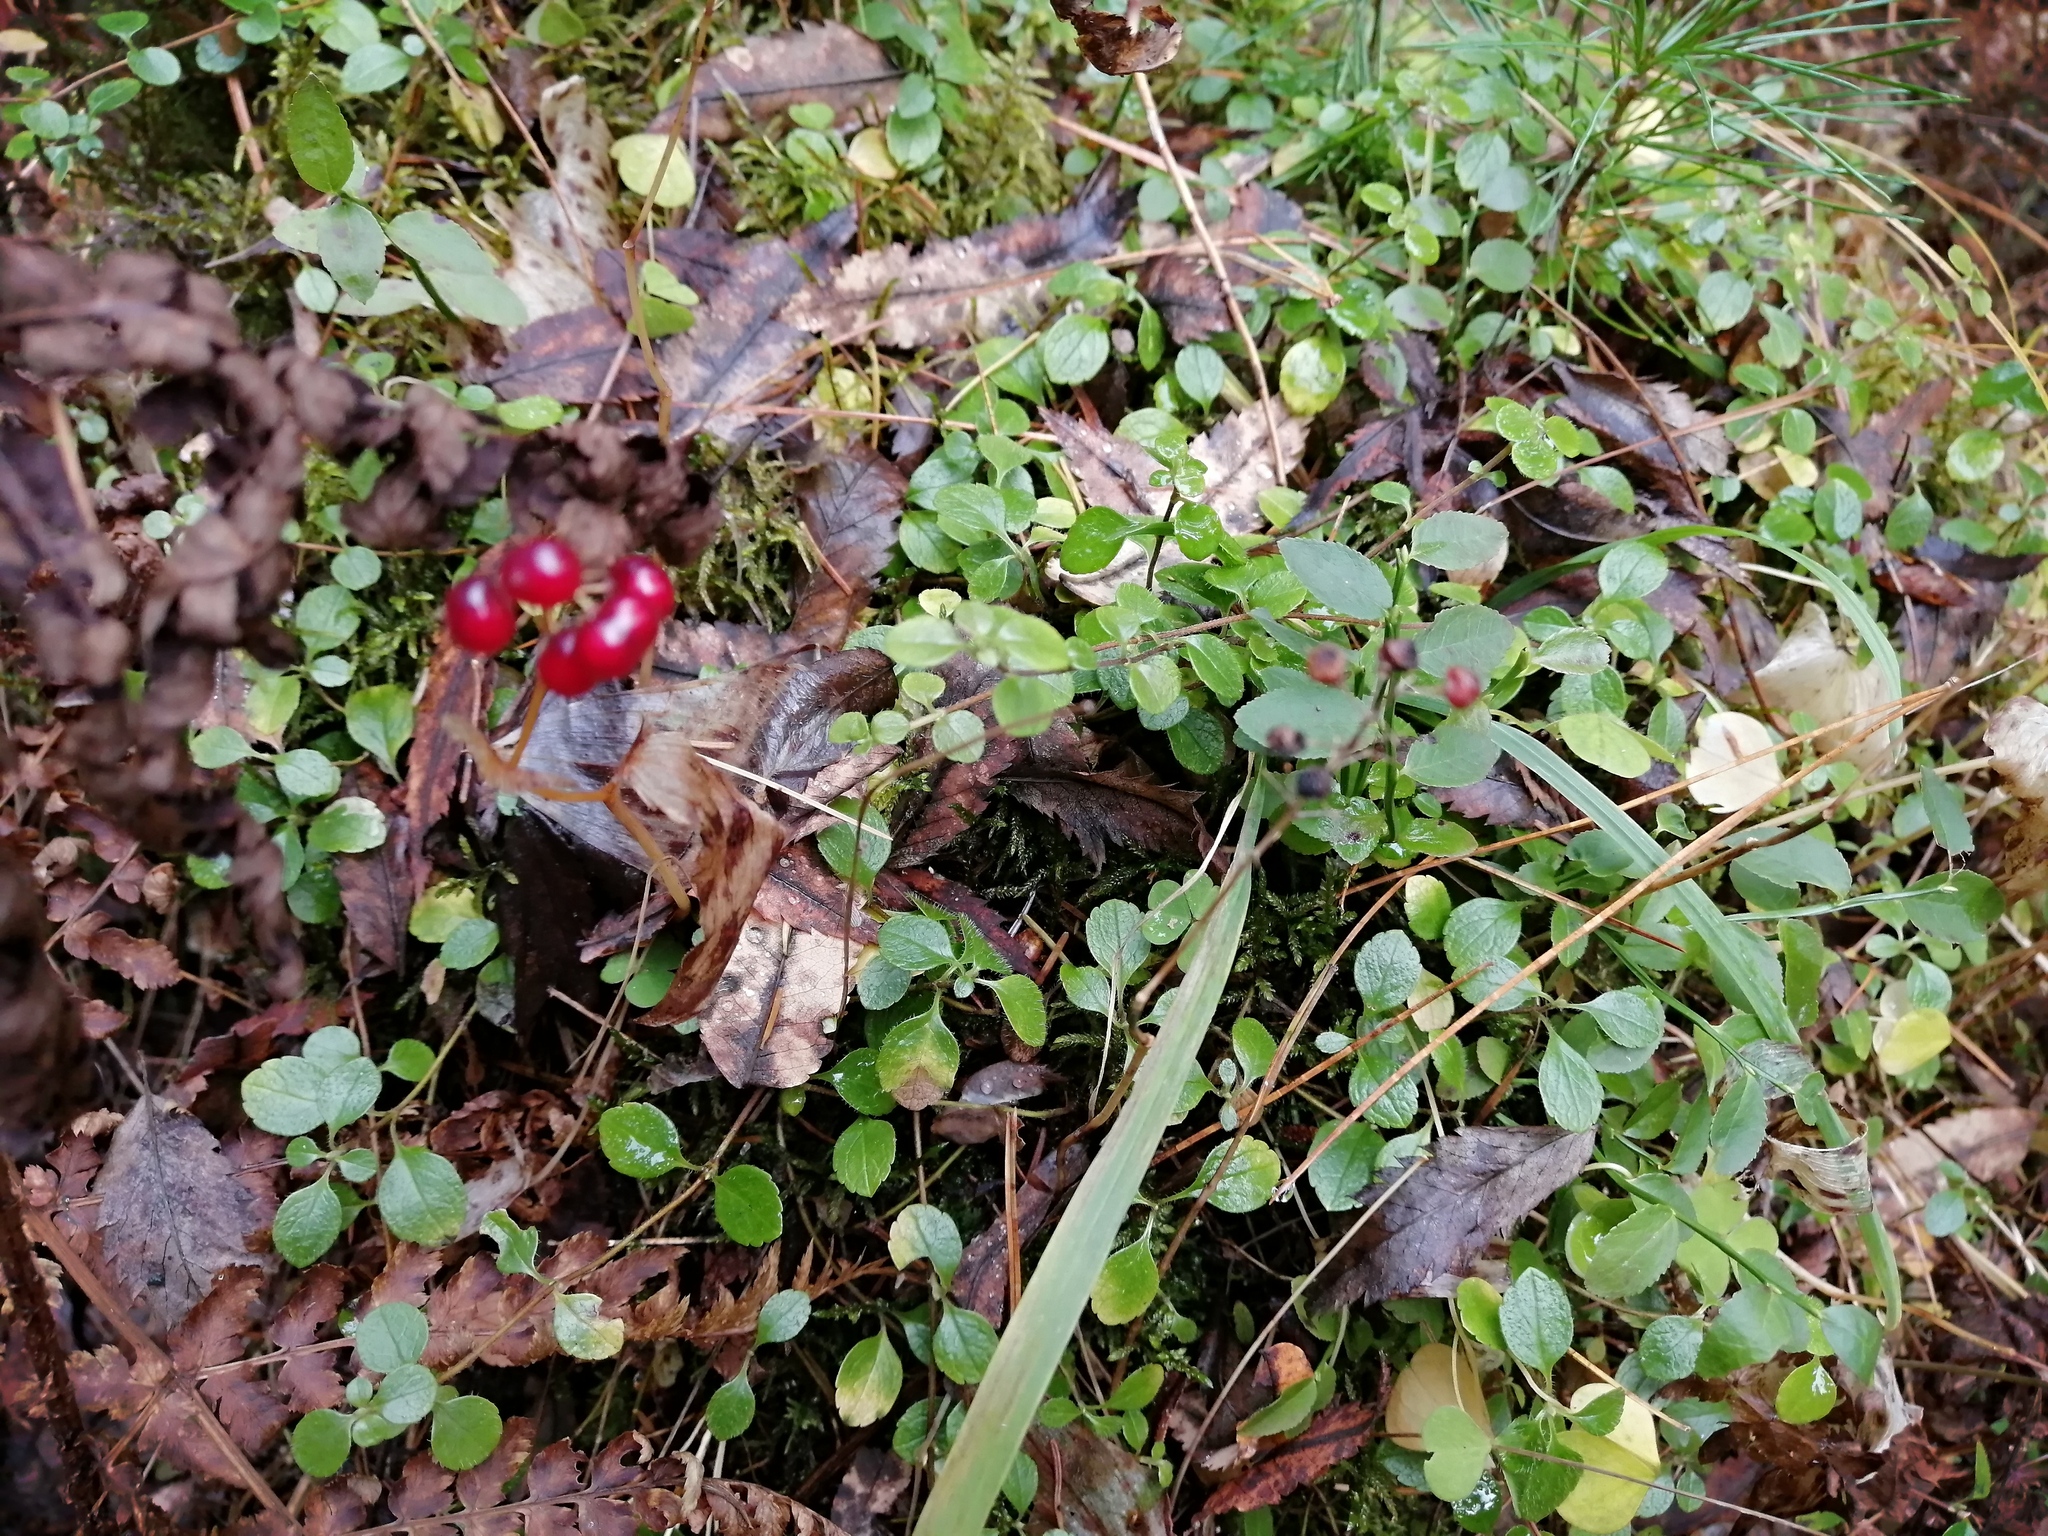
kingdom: Plantae
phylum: Tracheophyta
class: Liliopsida
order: Asparagales
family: Asparagaceae
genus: Maianthemum
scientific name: Maianthemum bifolium
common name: May lily
